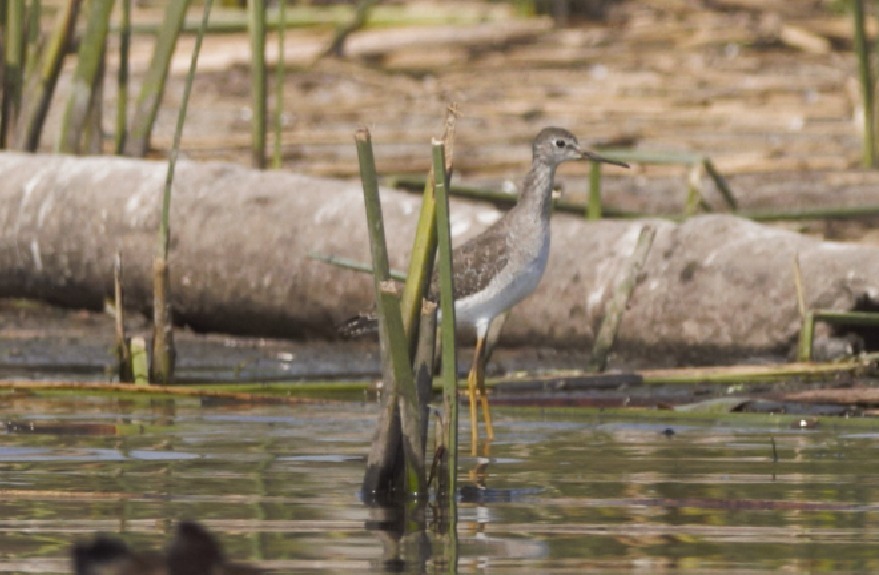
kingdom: Animalia
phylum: Chordata
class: Aves
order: Charadriiformes
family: Scolopacidae
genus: Tringa
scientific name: Tringa flavipes
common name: Lesser yellowlegs
